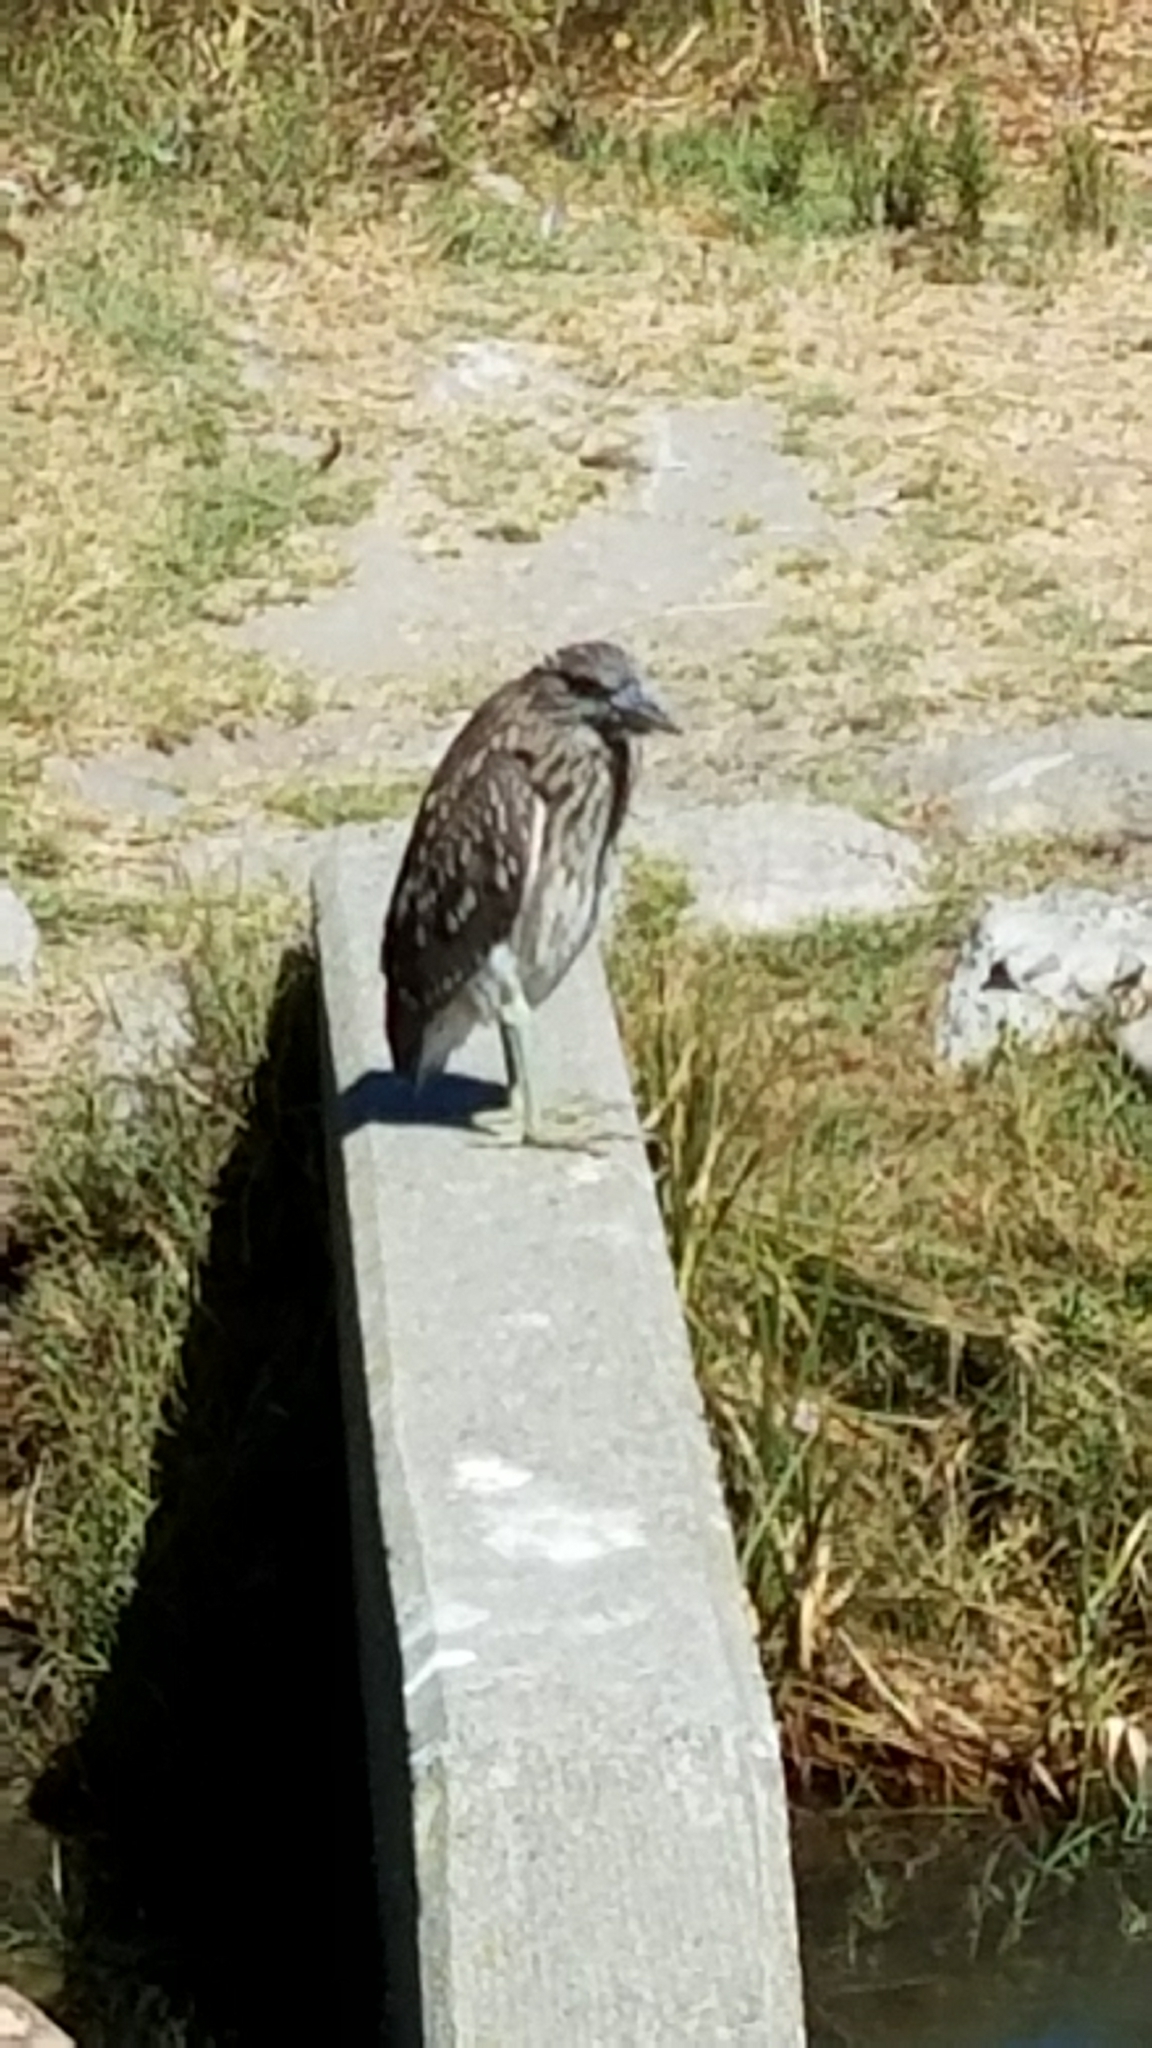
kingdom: Animalia
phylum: Chordata
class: Aves
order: Pelecaniformes
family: Ardeidae
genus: Nycticorax
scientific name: Nycticorax nycticorax
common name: Black-crowned night heron
